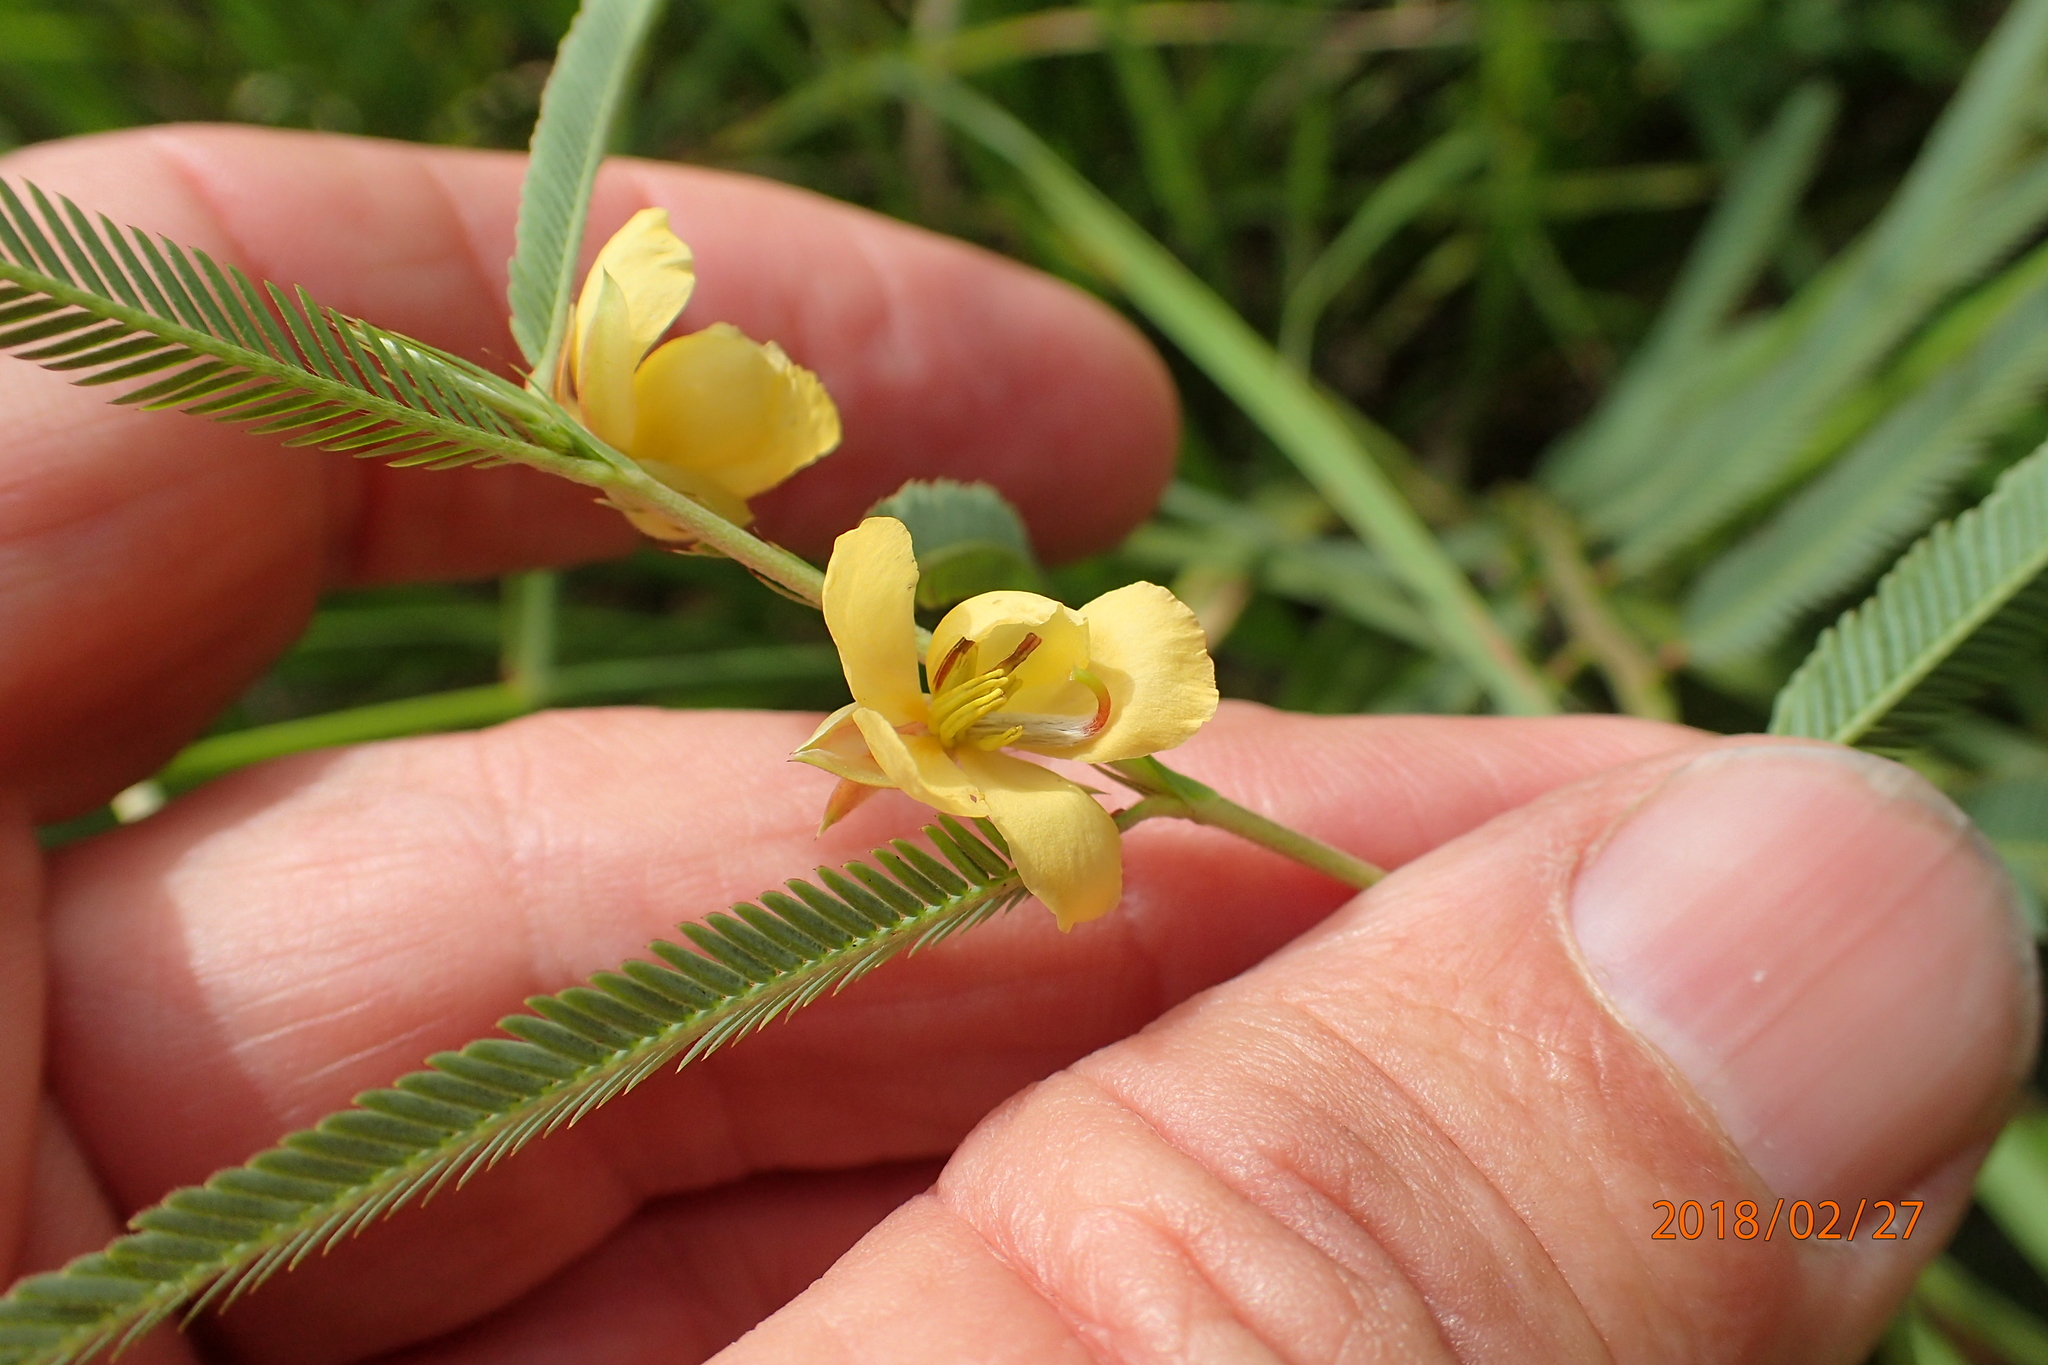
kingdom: Plantae
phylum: Tracheophyta
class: Magnoliopsida
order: Fabales
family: Fabaceae
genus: Chamaecrista
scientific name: Chamaecrista comosa
